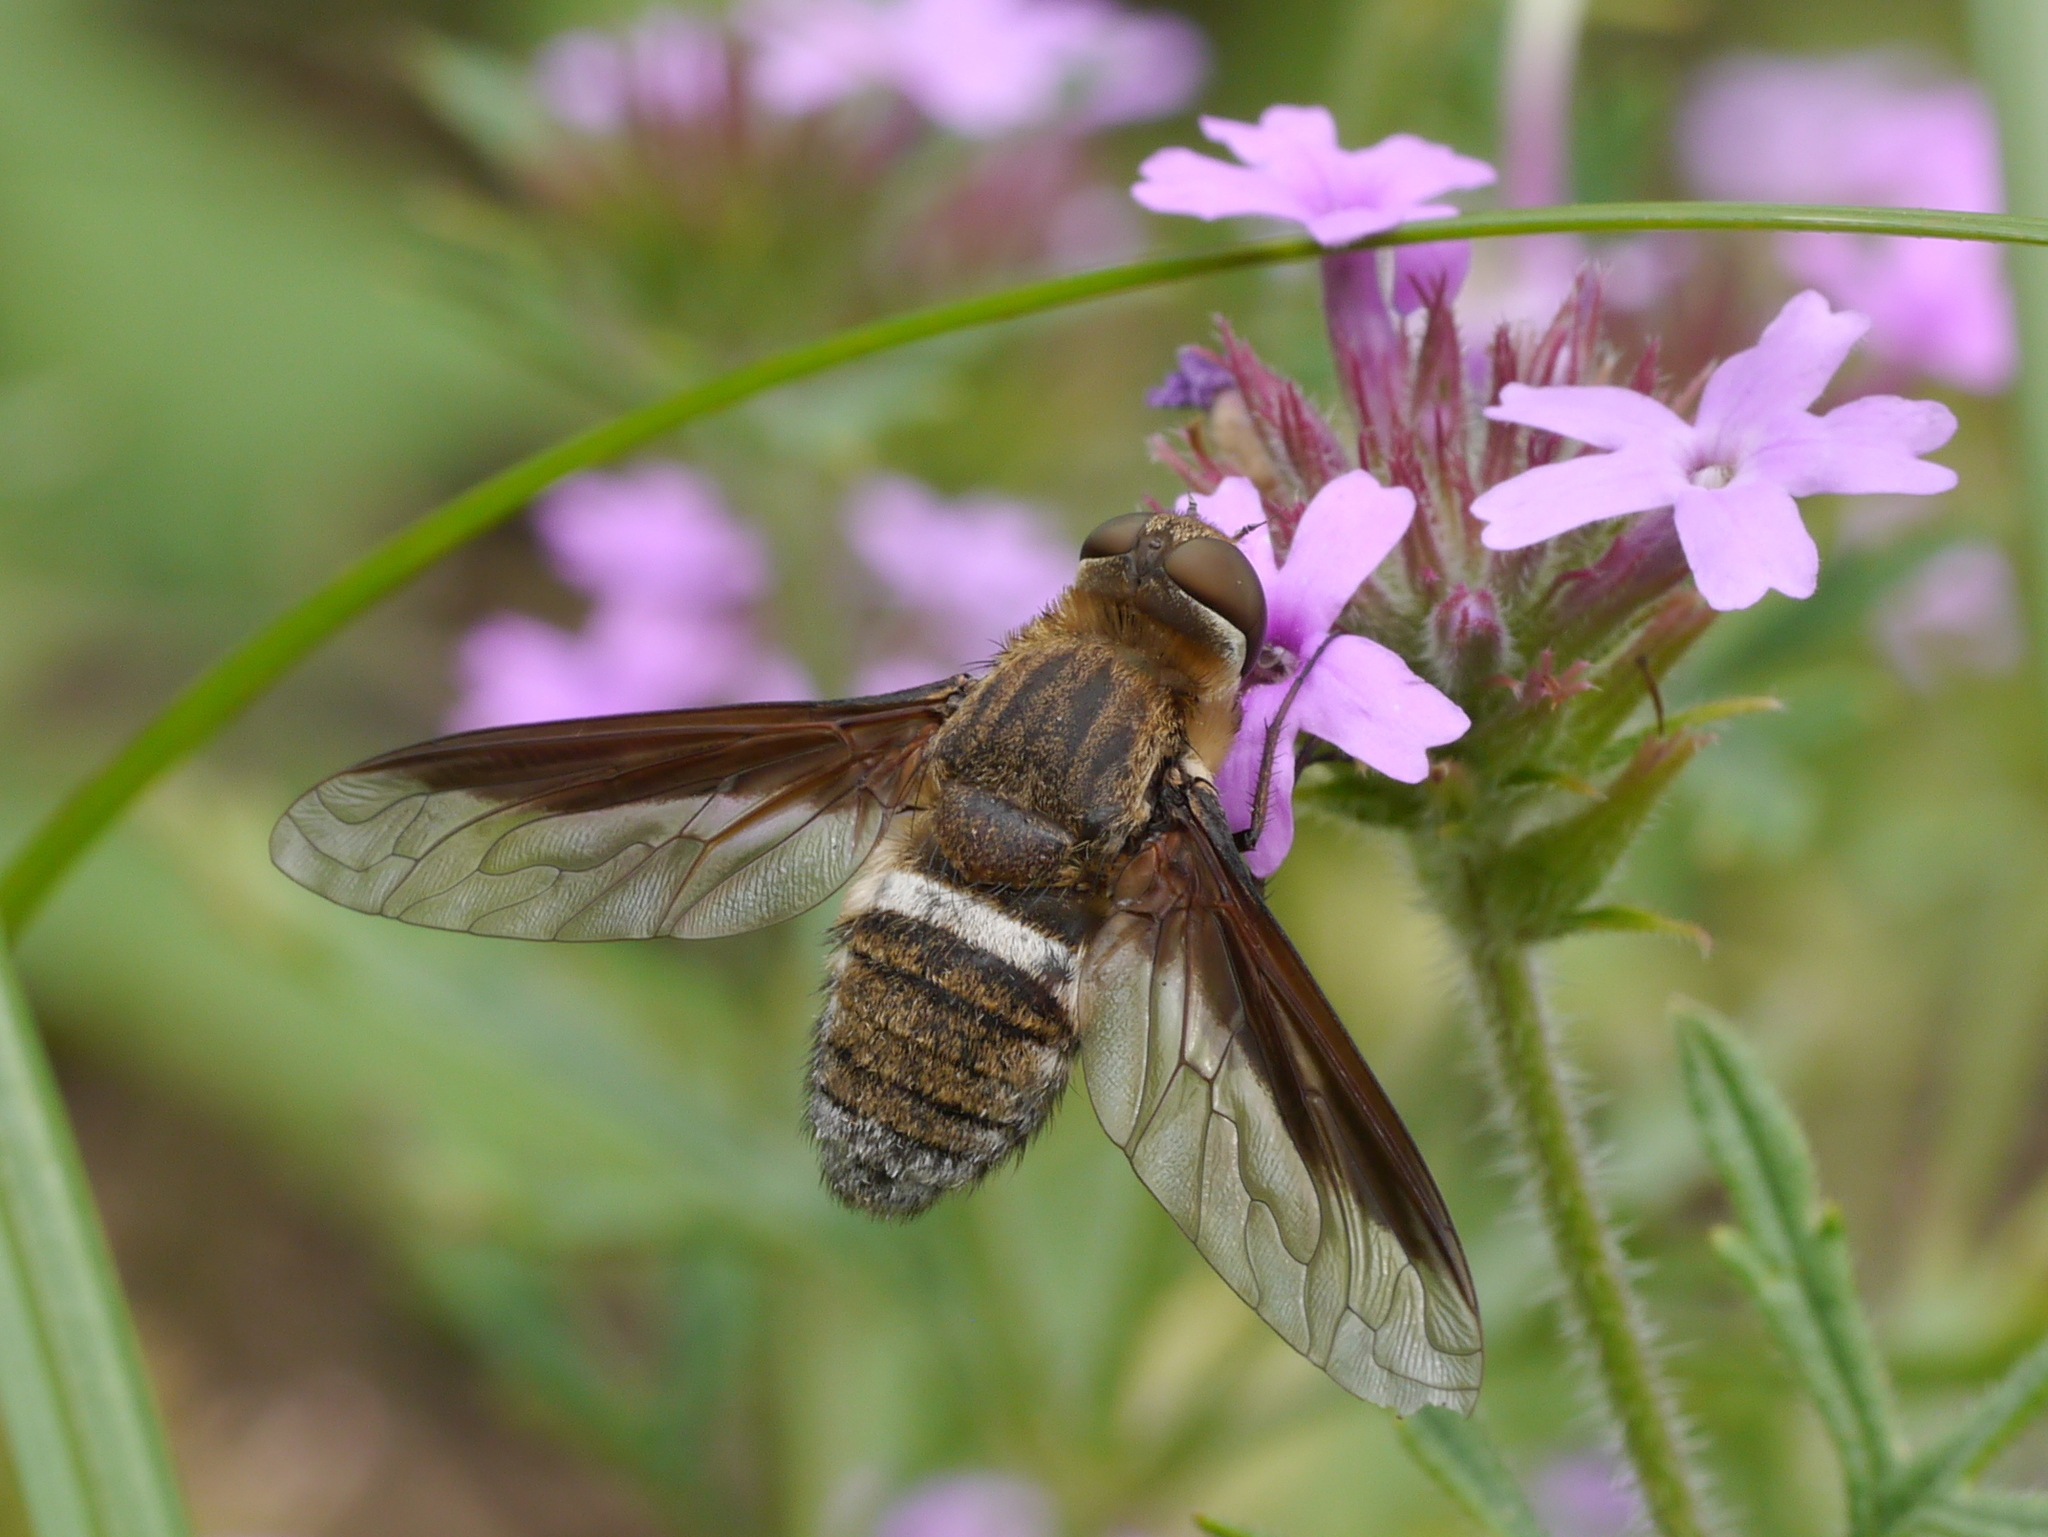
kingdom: Animalia
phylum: Arthropoda
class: Insecta
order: Diptera
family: Bombyliidae
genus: Exoprosopa
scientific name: Exoprosopa rostrifera
